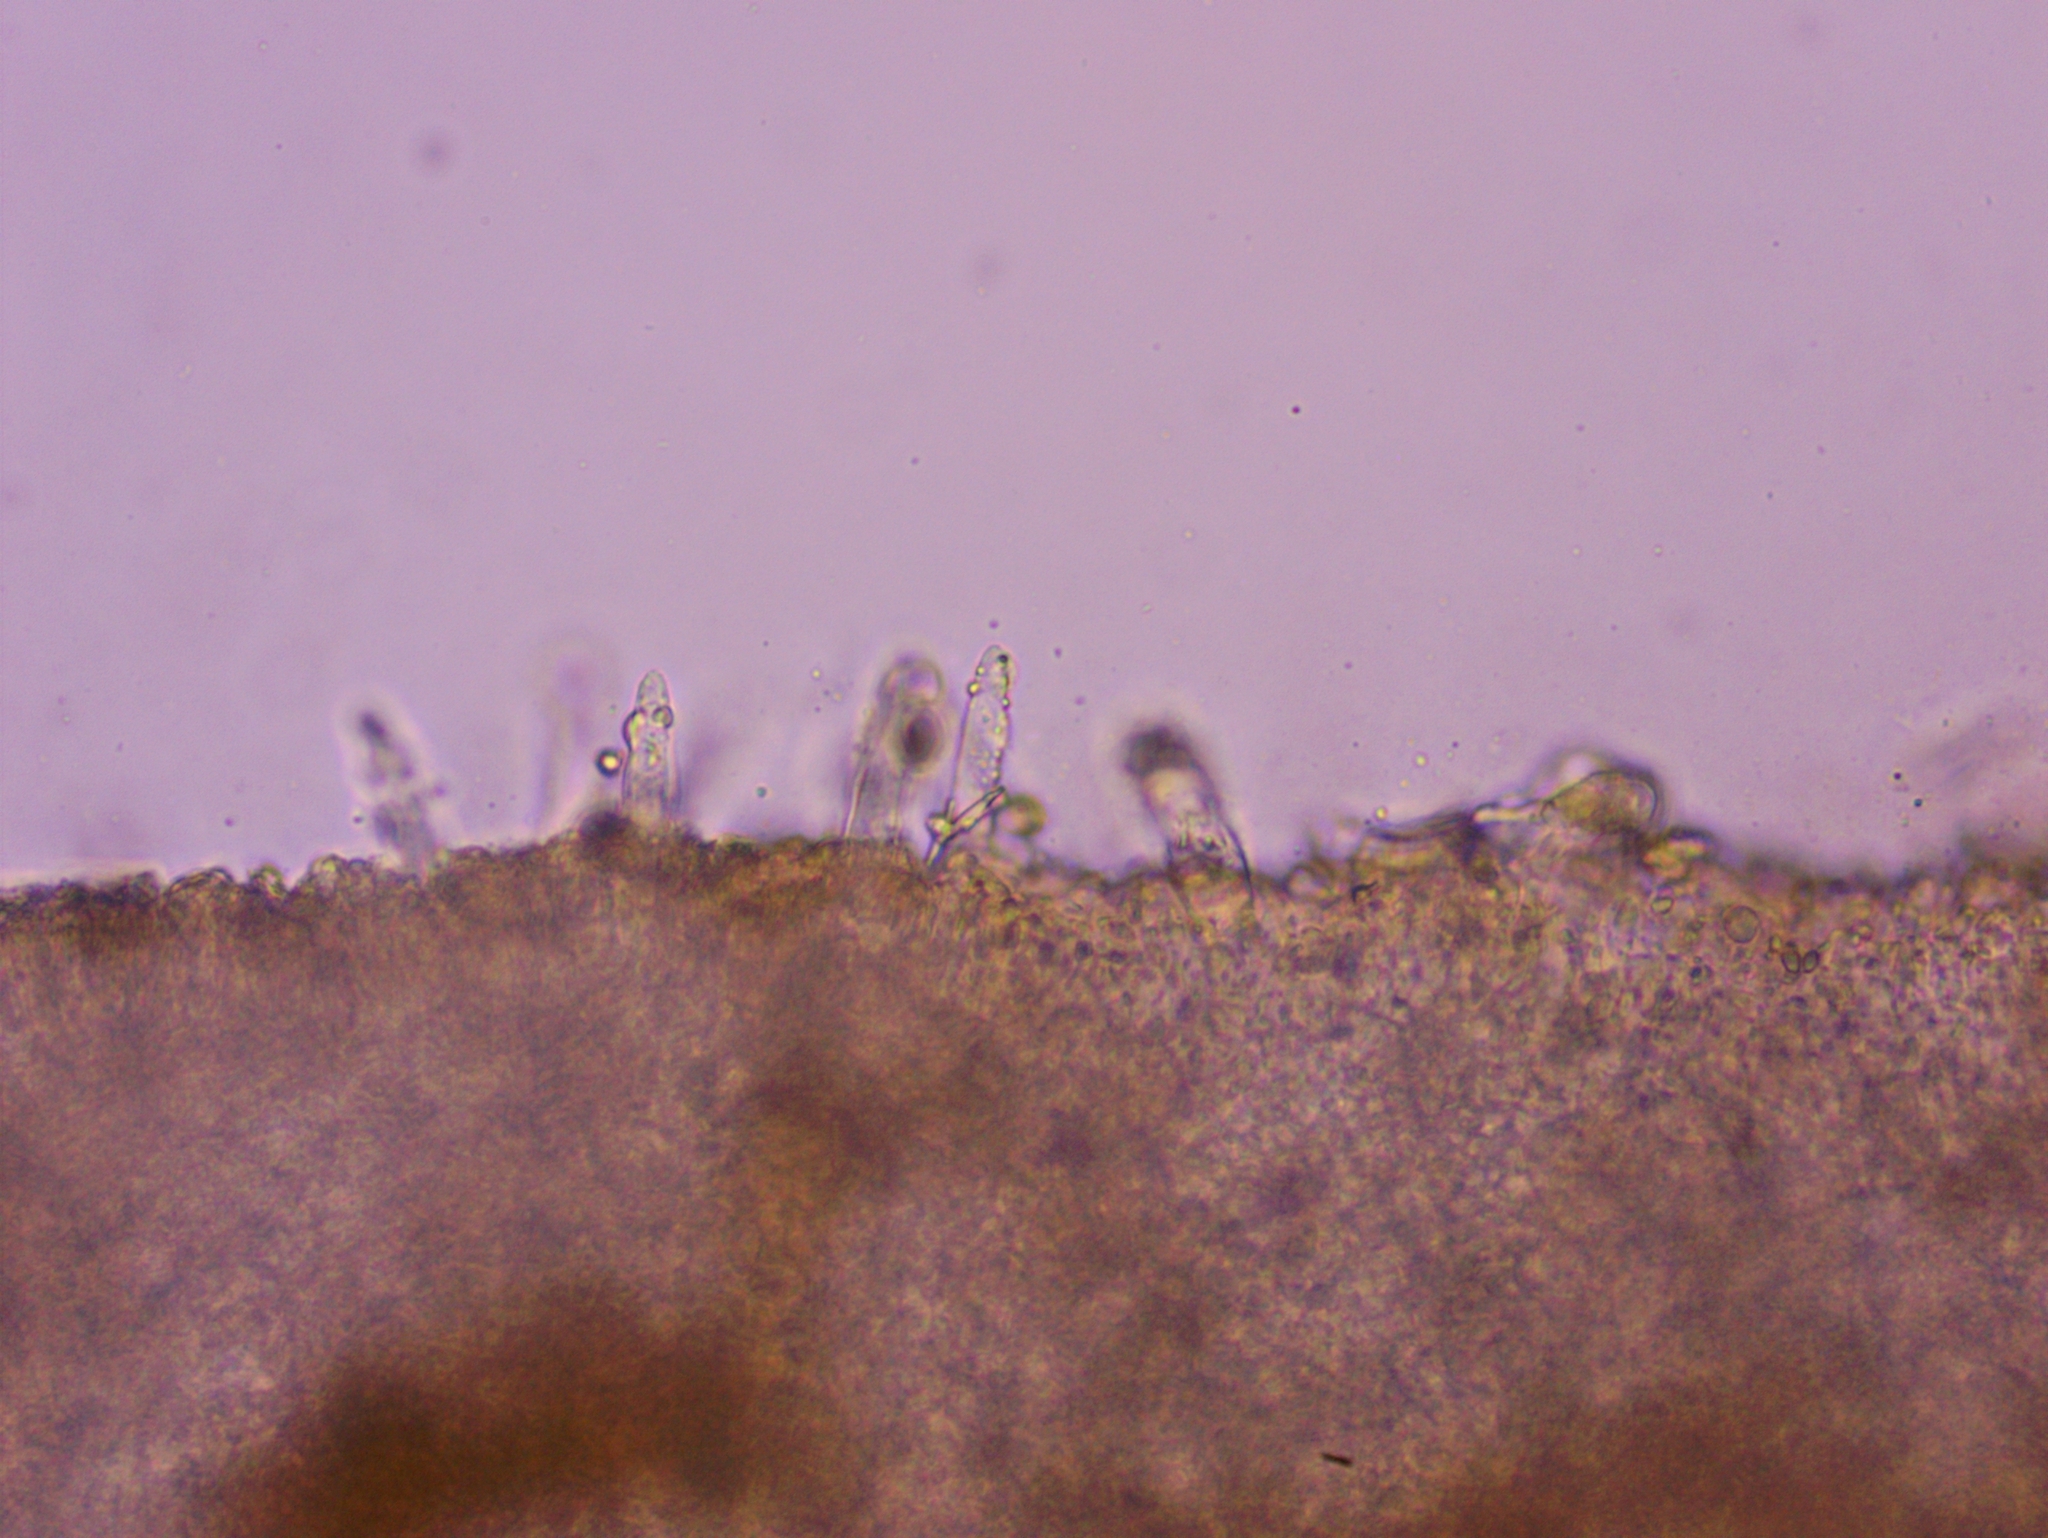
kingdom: Fungi
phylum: Basidiomycota
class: Agaricomycetes
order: Agaricales
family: Physalacriaceae
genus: Strobilurus
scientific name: Strobilurus tenacellus
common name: Pinecone cap
